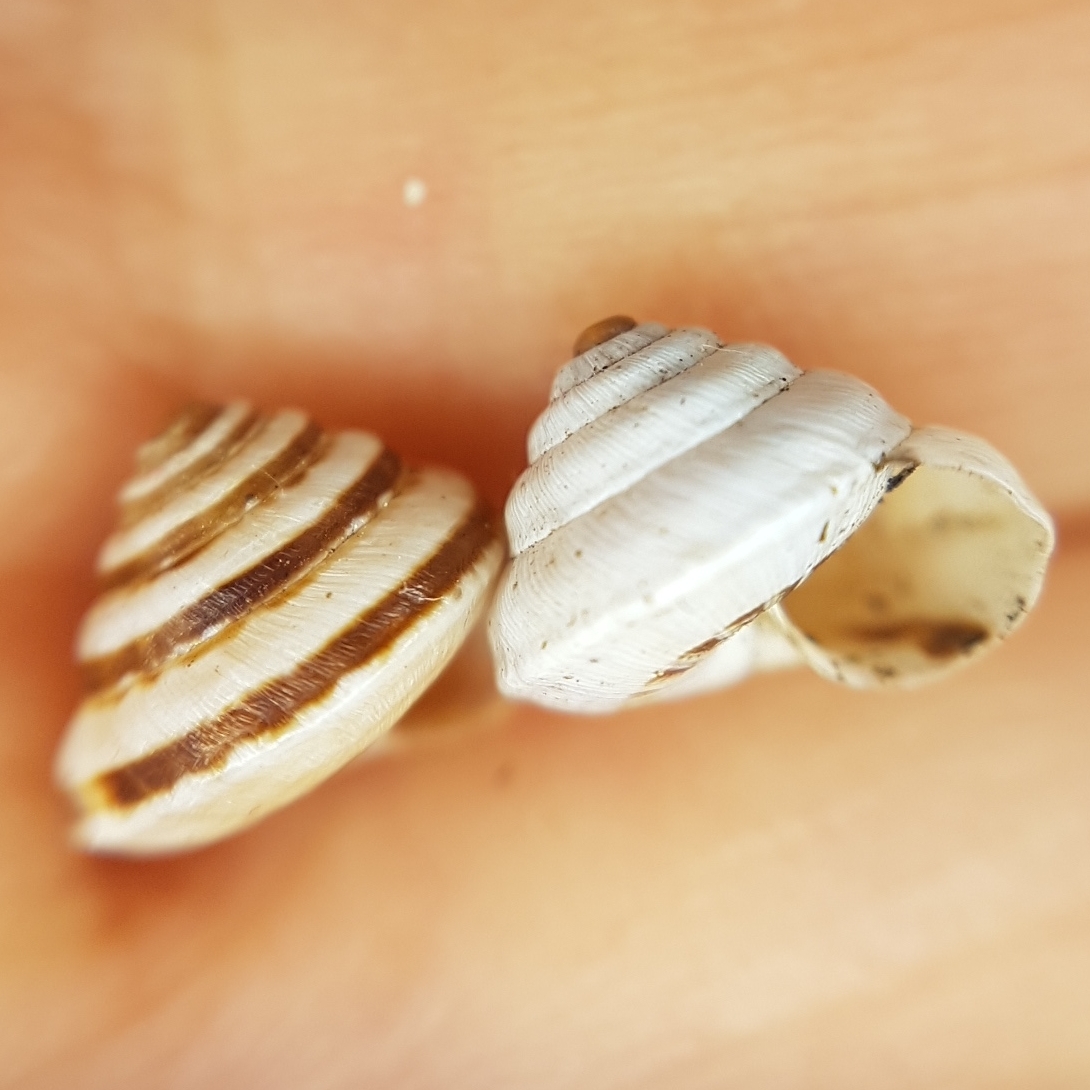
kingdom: Animalia
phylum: Mollusca
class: Gastropoda
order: Stylommatophora
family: Geomitridae
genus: Trochoidea
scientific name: Trochoidea trochoides
